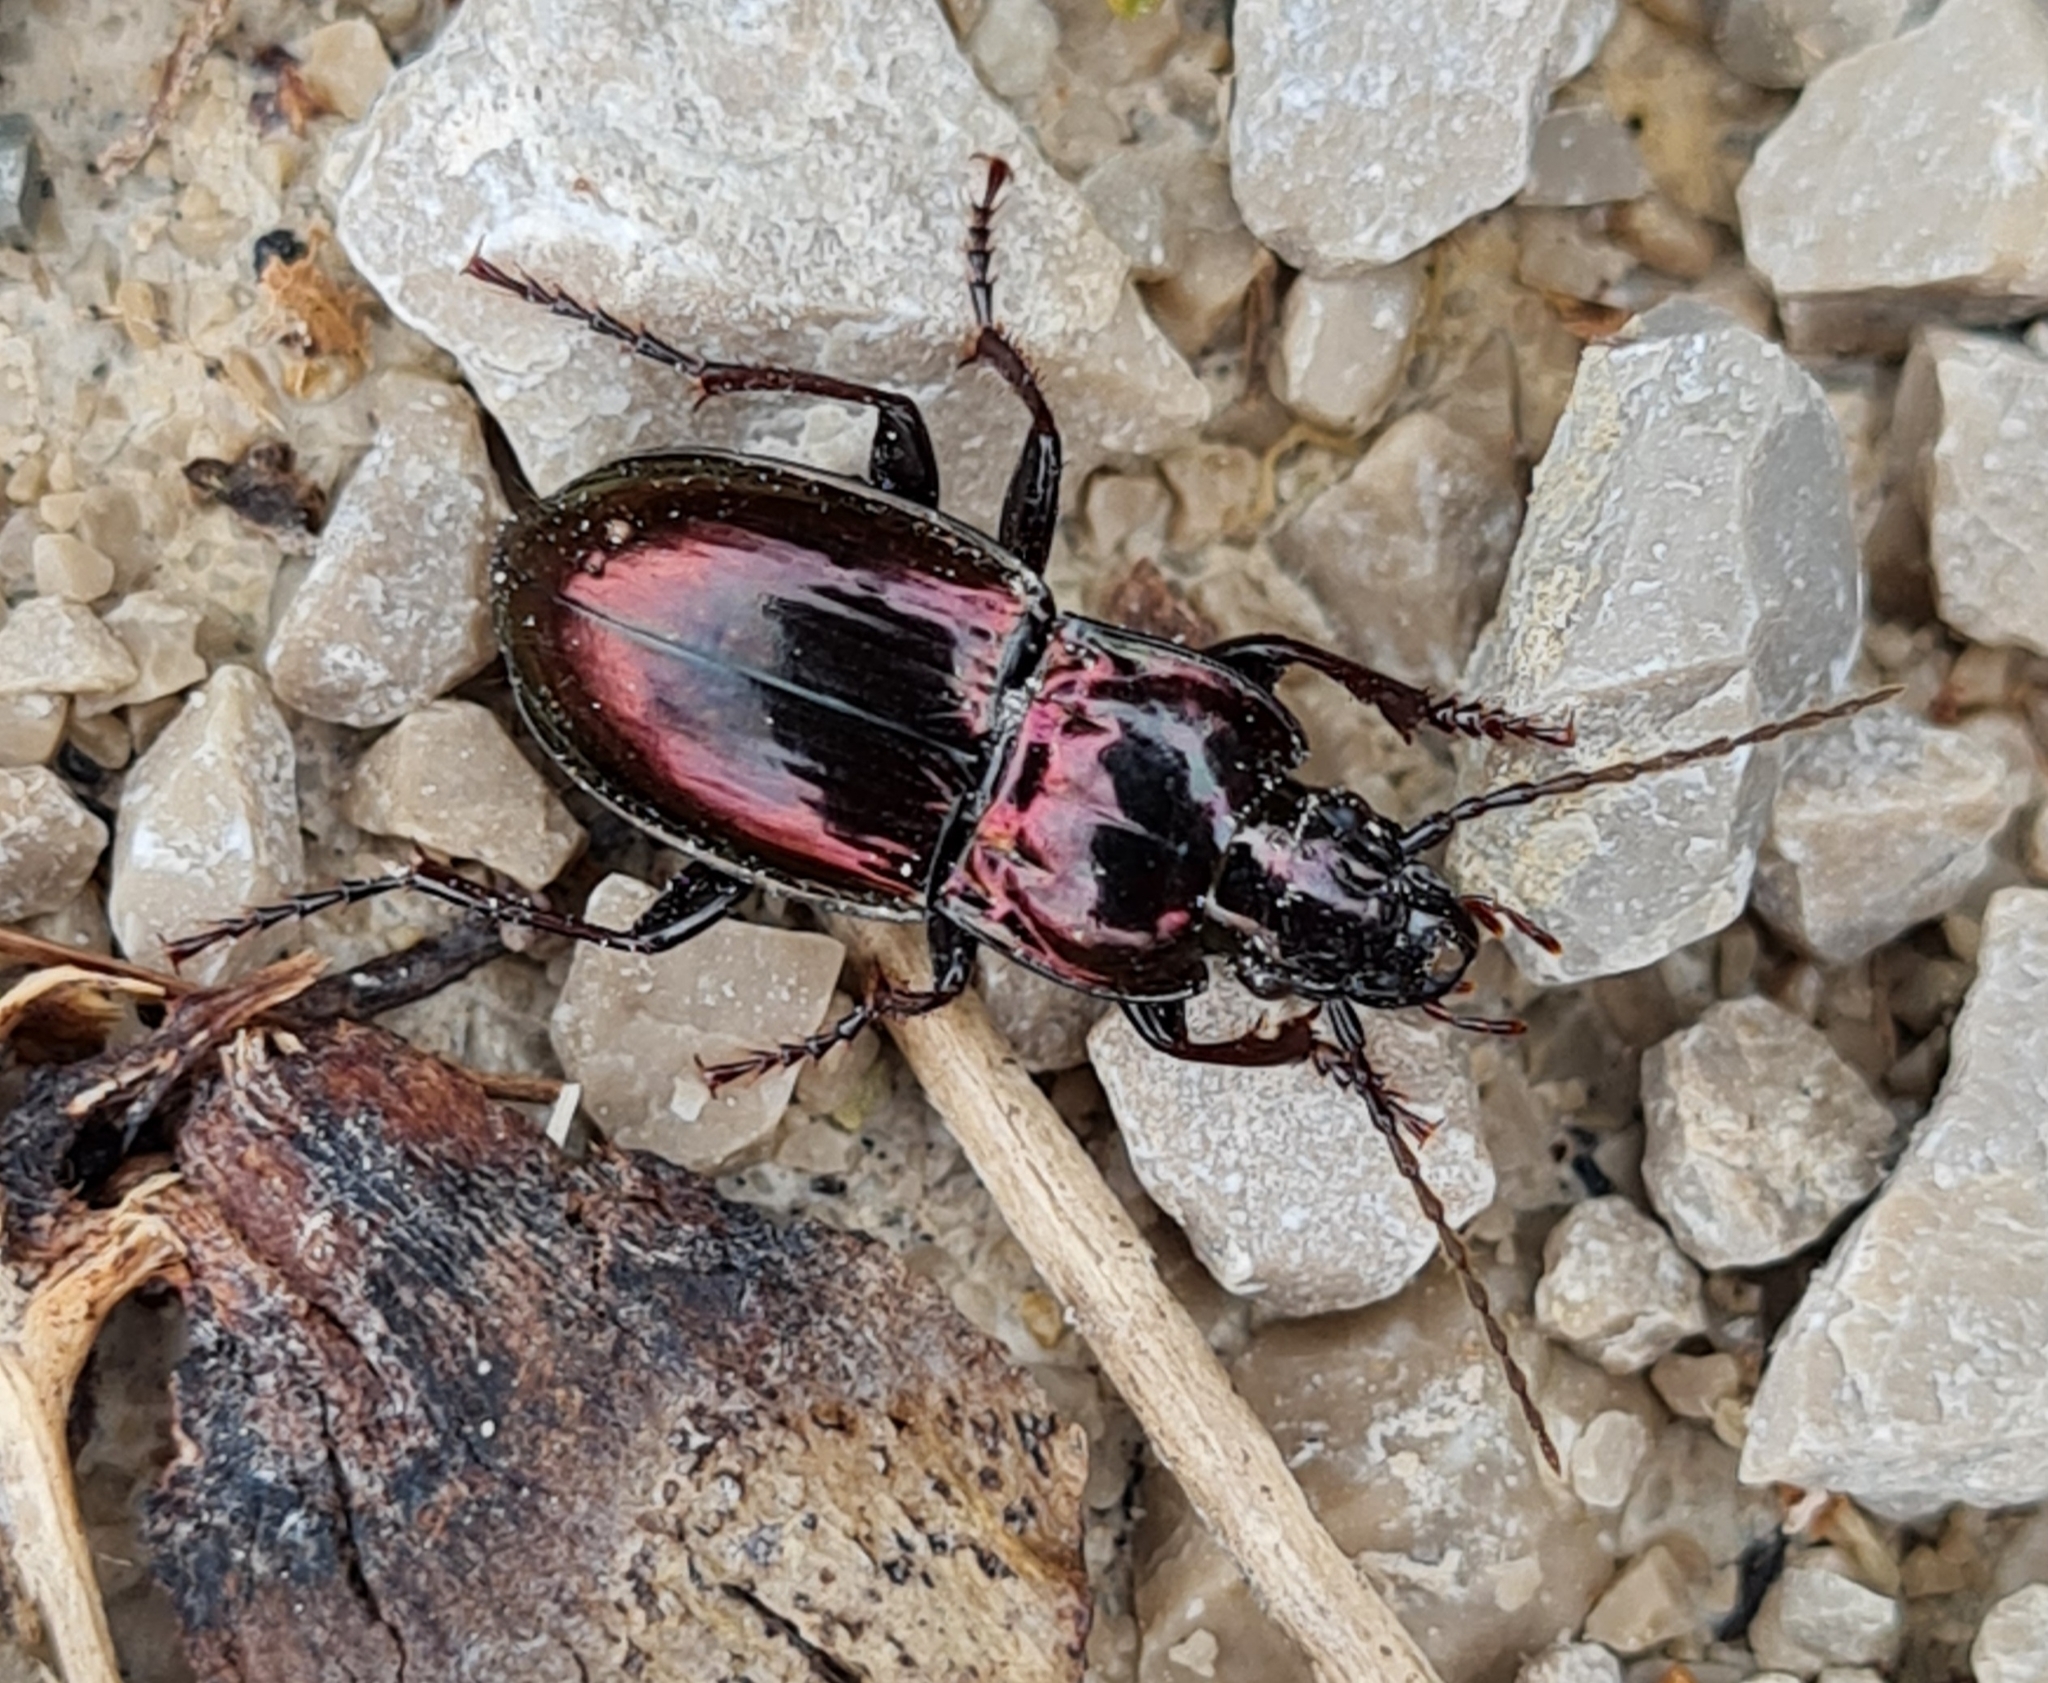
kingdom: Animalia
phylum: Arthropoda
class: Insecta
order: Coleoptera
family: Carabidae
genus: Pterostichus
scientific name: Pterostichus burmeisteri
